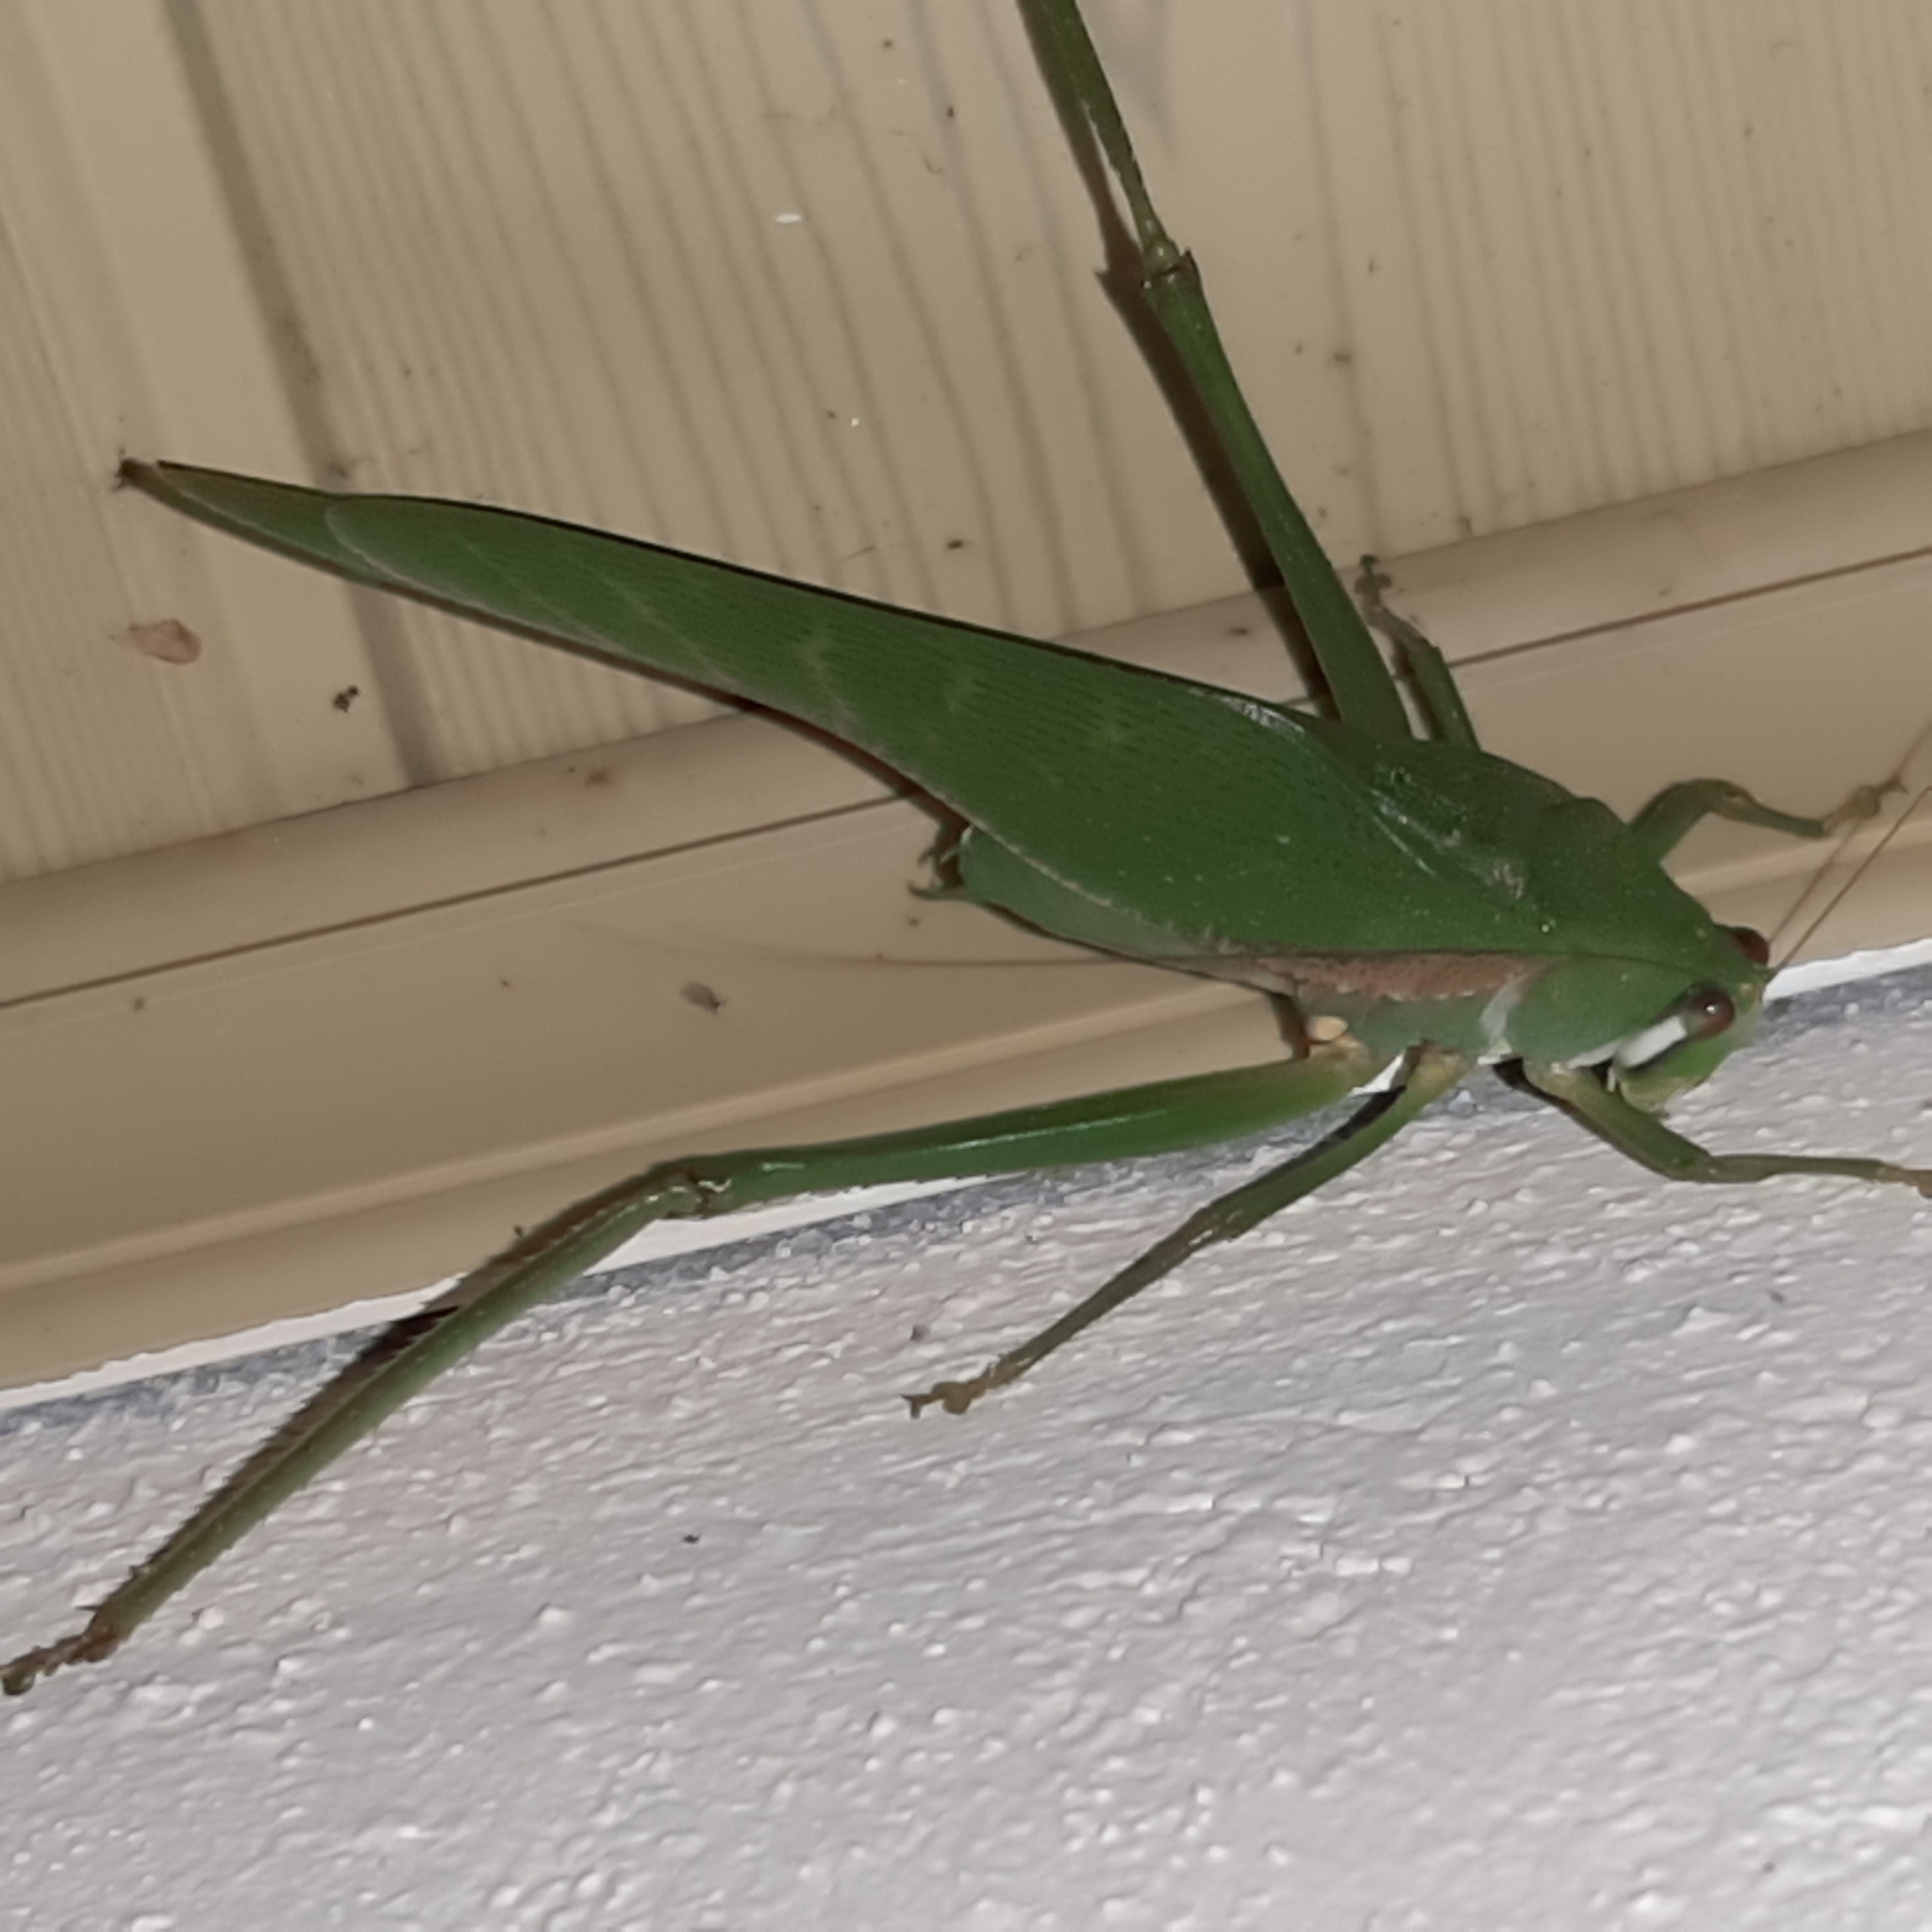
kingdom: Animalia
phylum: Arthropoda
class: Insecta
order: Orthoptera
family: Tettigoniidae
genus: Philophyllia
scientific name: Philophyllia guttulata
